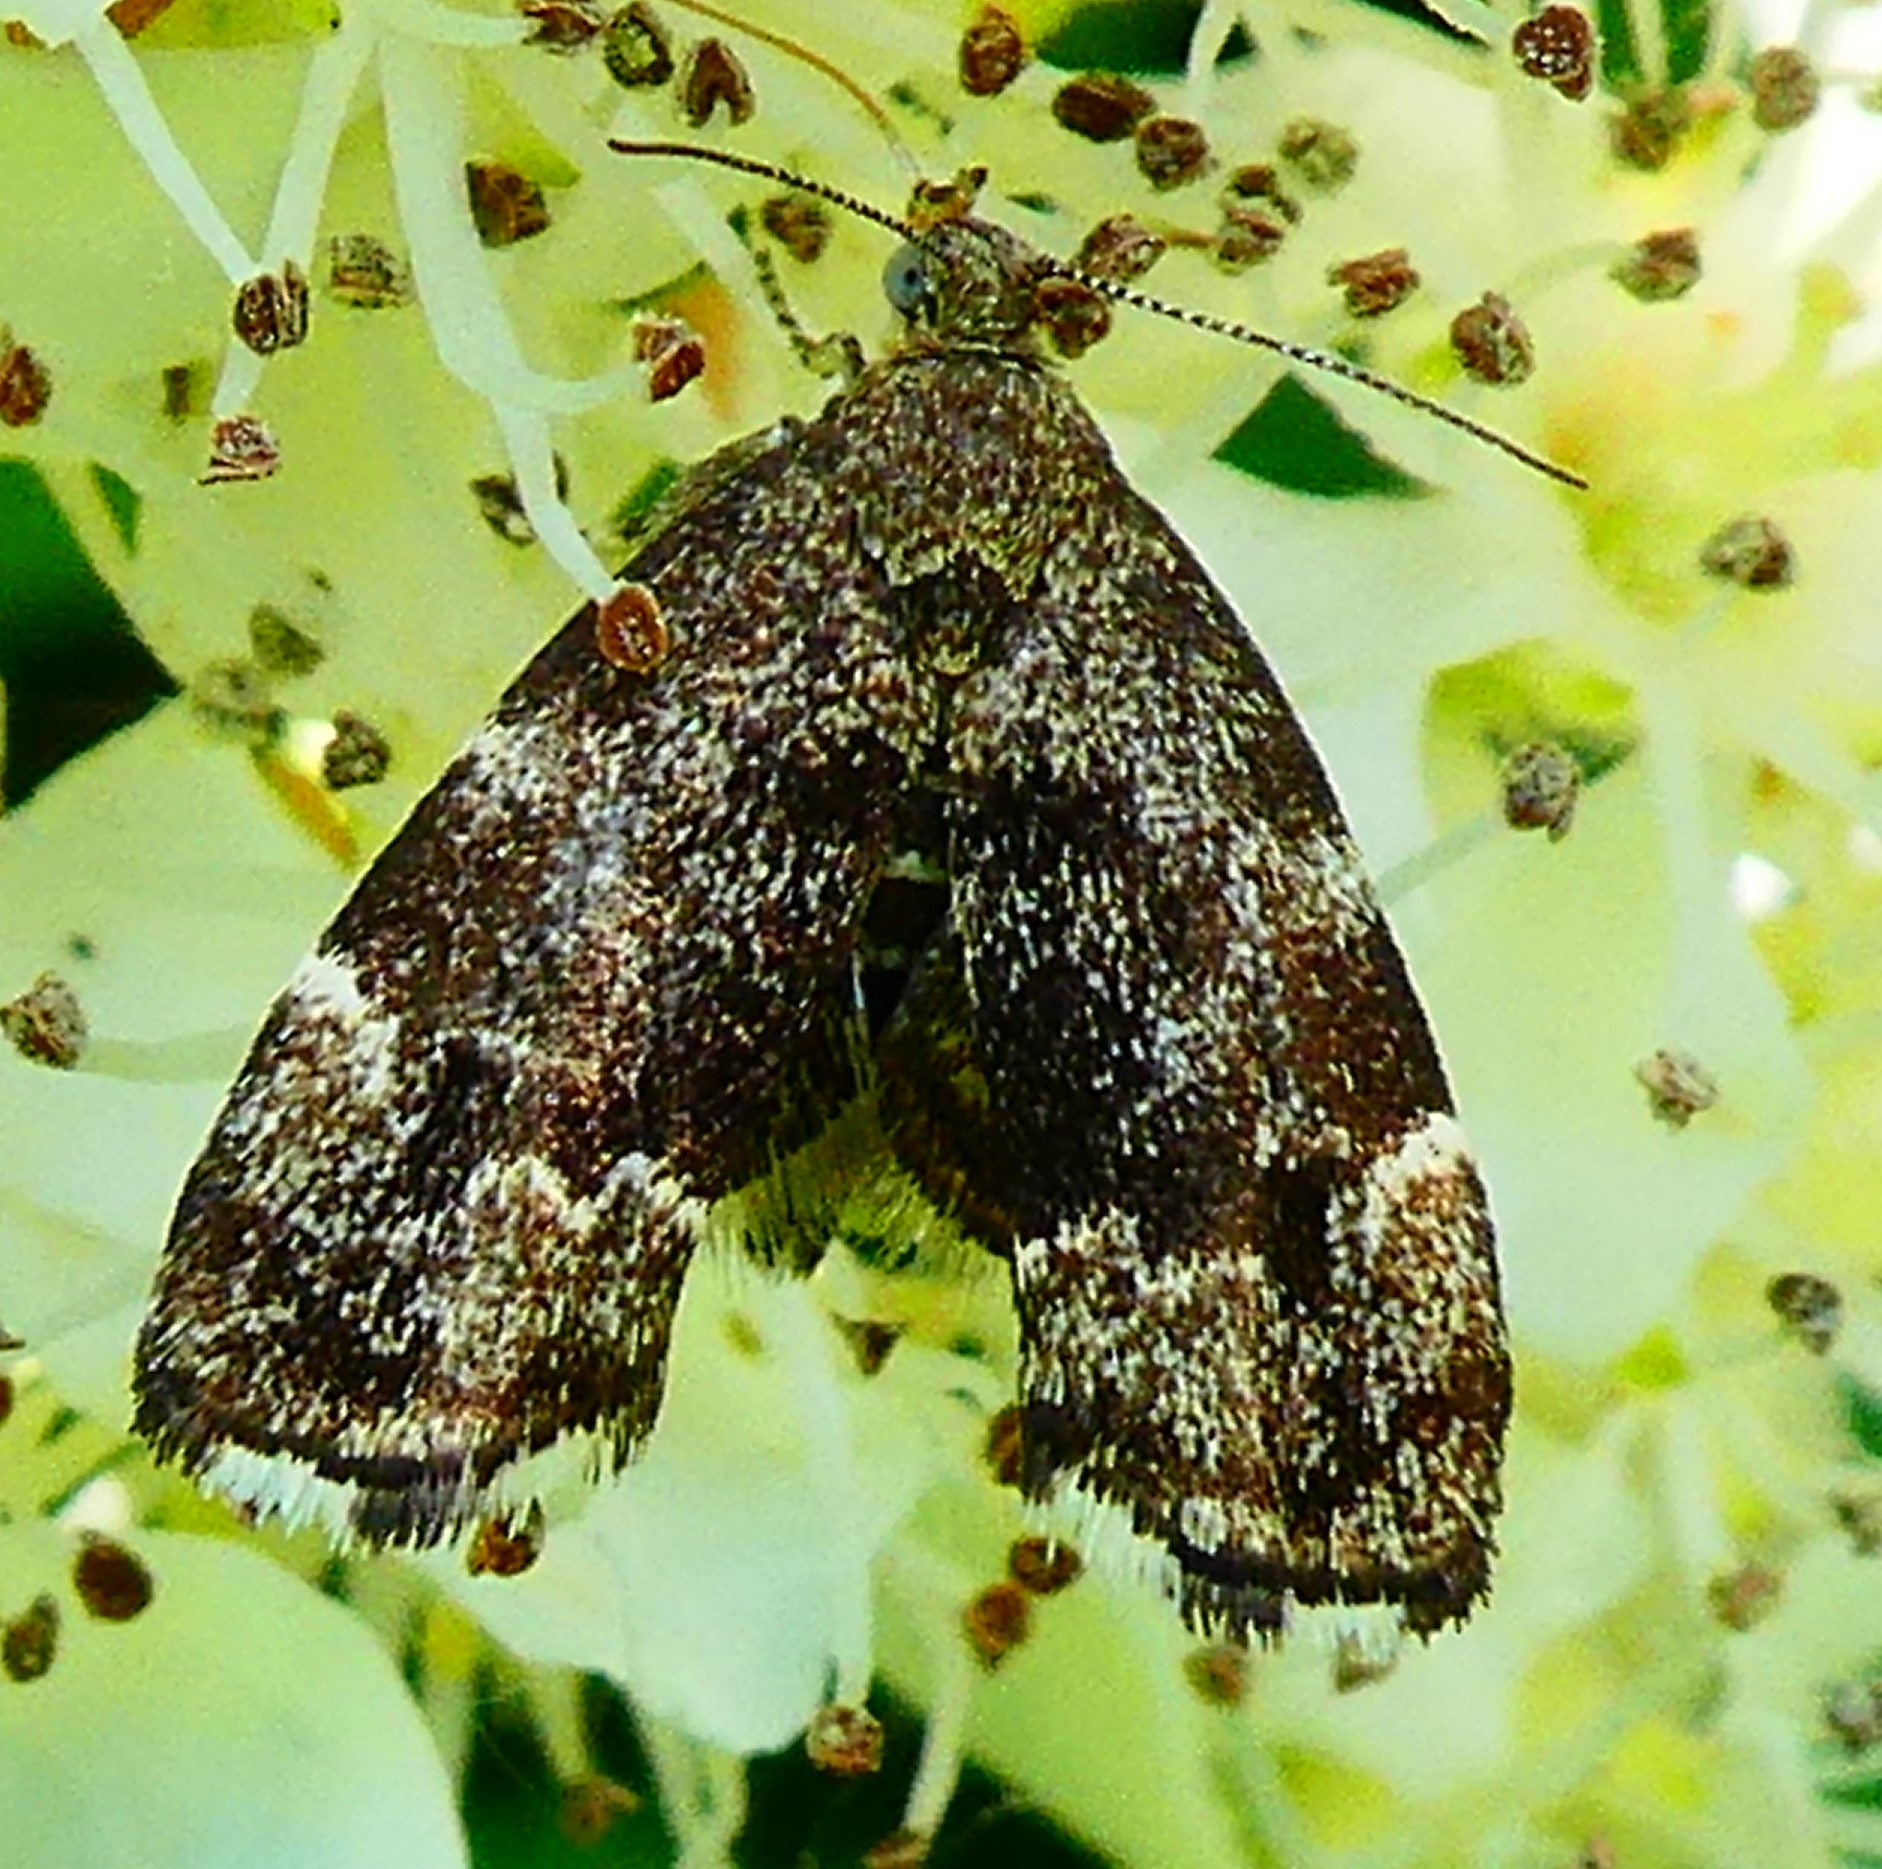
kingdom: Animalia
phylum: Arthropoda
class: Insecta
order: Lepidoptera
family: Choreutidae
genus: Anthophila
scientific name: Anthophila fabriciana
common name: Nettle-tap
